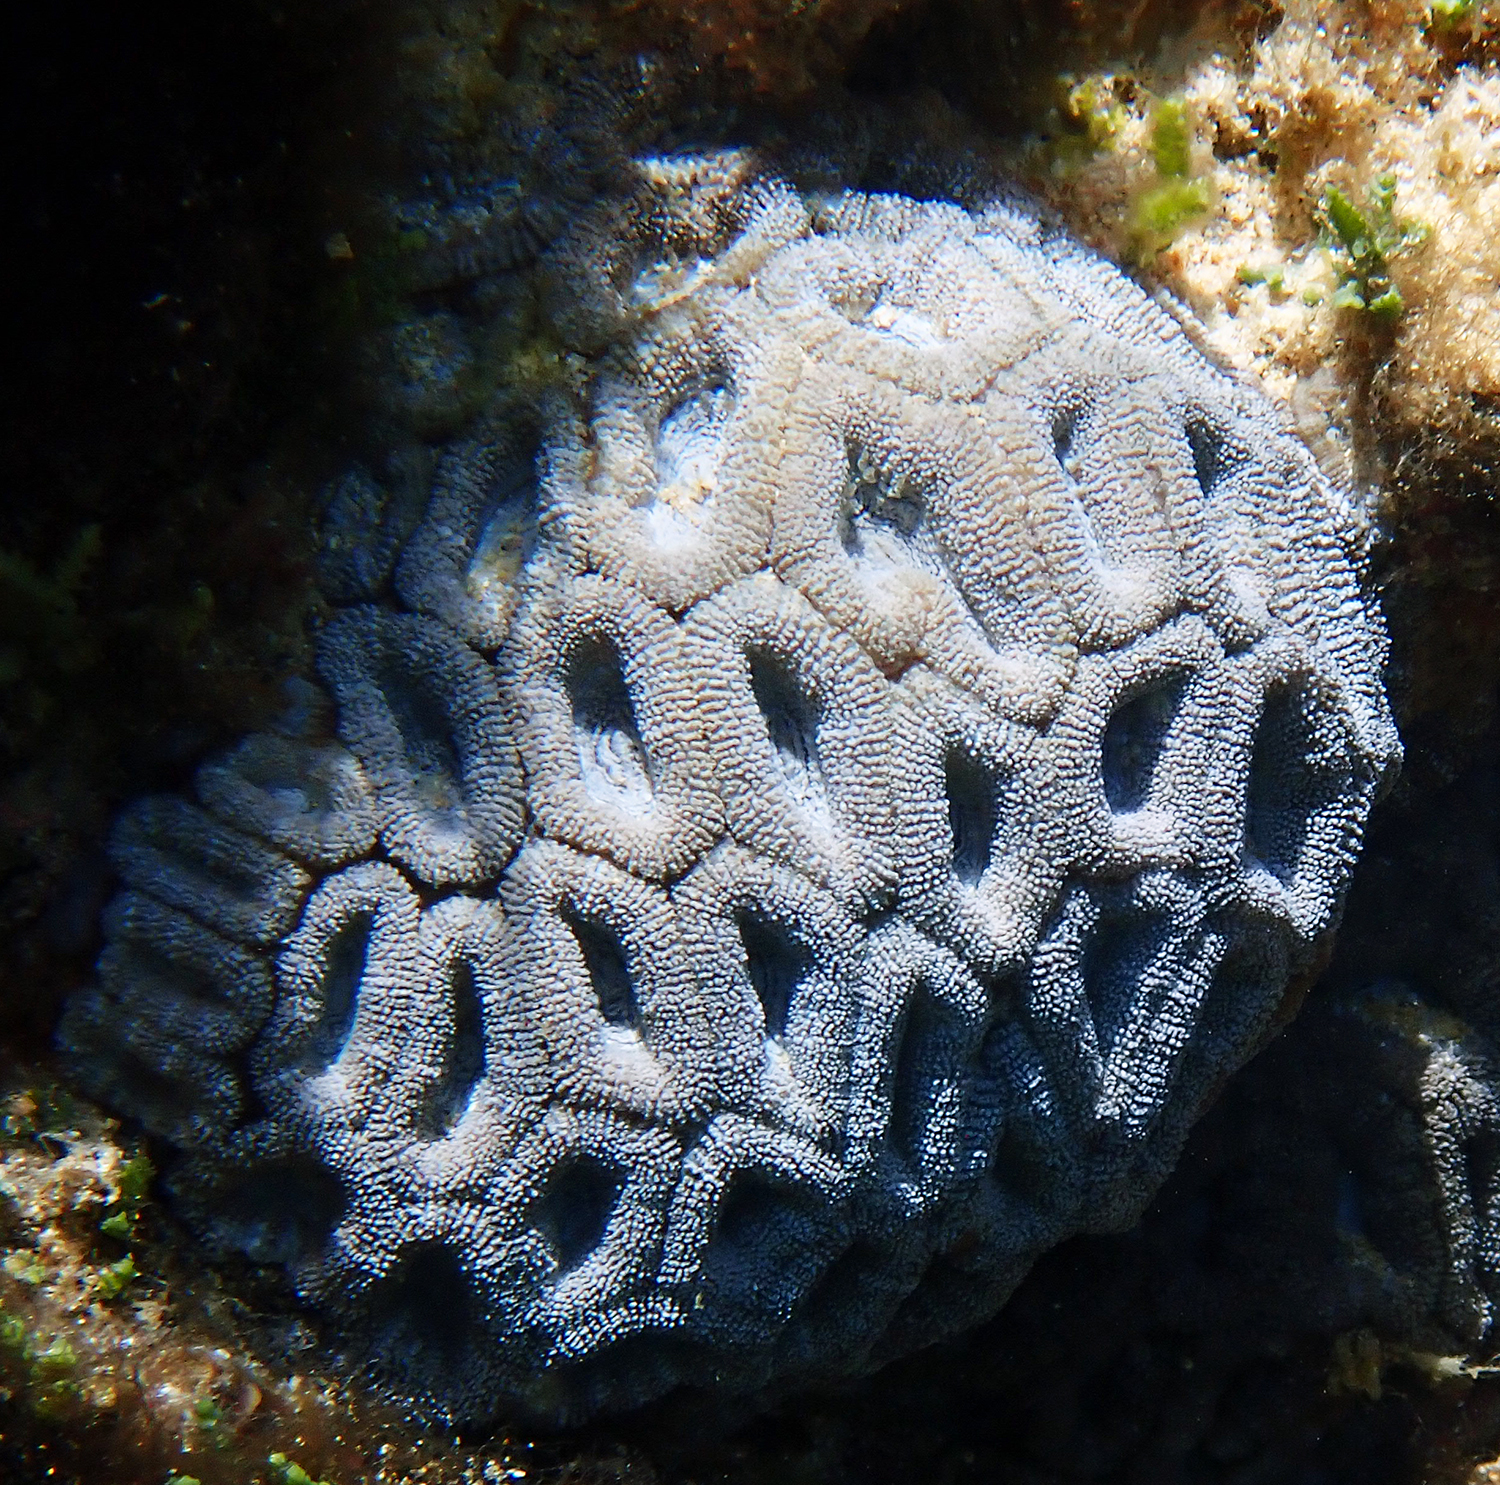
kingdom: Animalia
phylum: Cnidaria
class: Anthozoa
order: Scleractinia
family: Lobophylliidae
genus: Micromussa
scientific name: Micromussa lordhowensis
